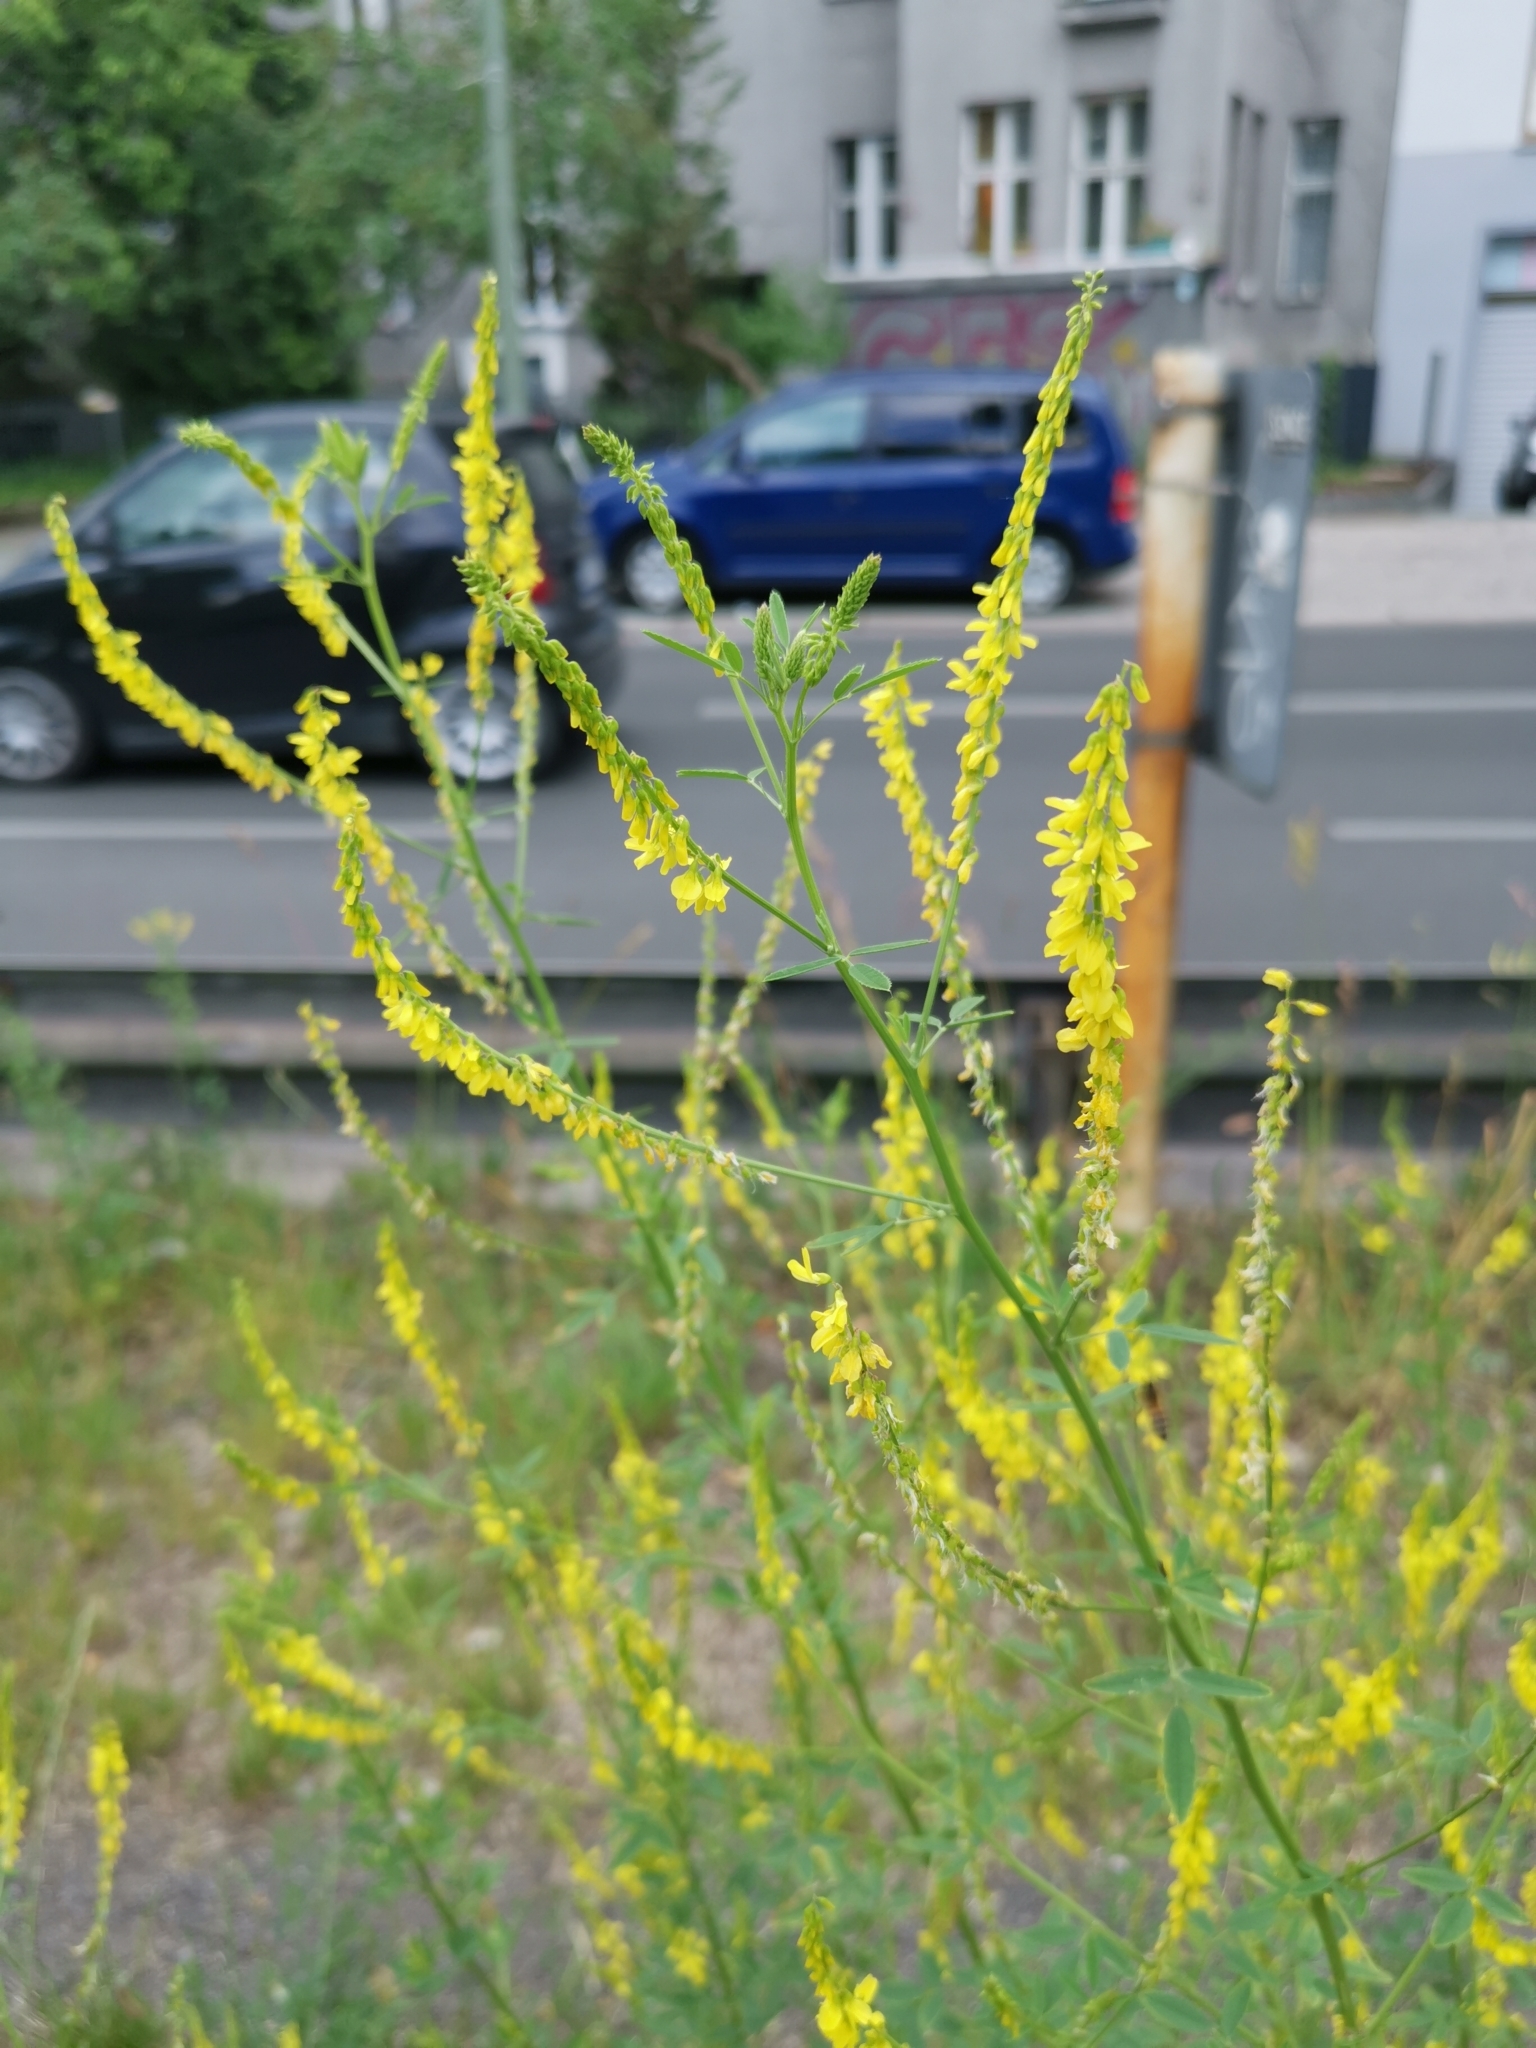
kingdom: Plantae
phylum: Tracheophyta
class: Magnoliopsida
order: Fabales
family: Fabaceae
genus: Melilotus
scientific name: Melilotus officinalis
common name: Sweetclover
